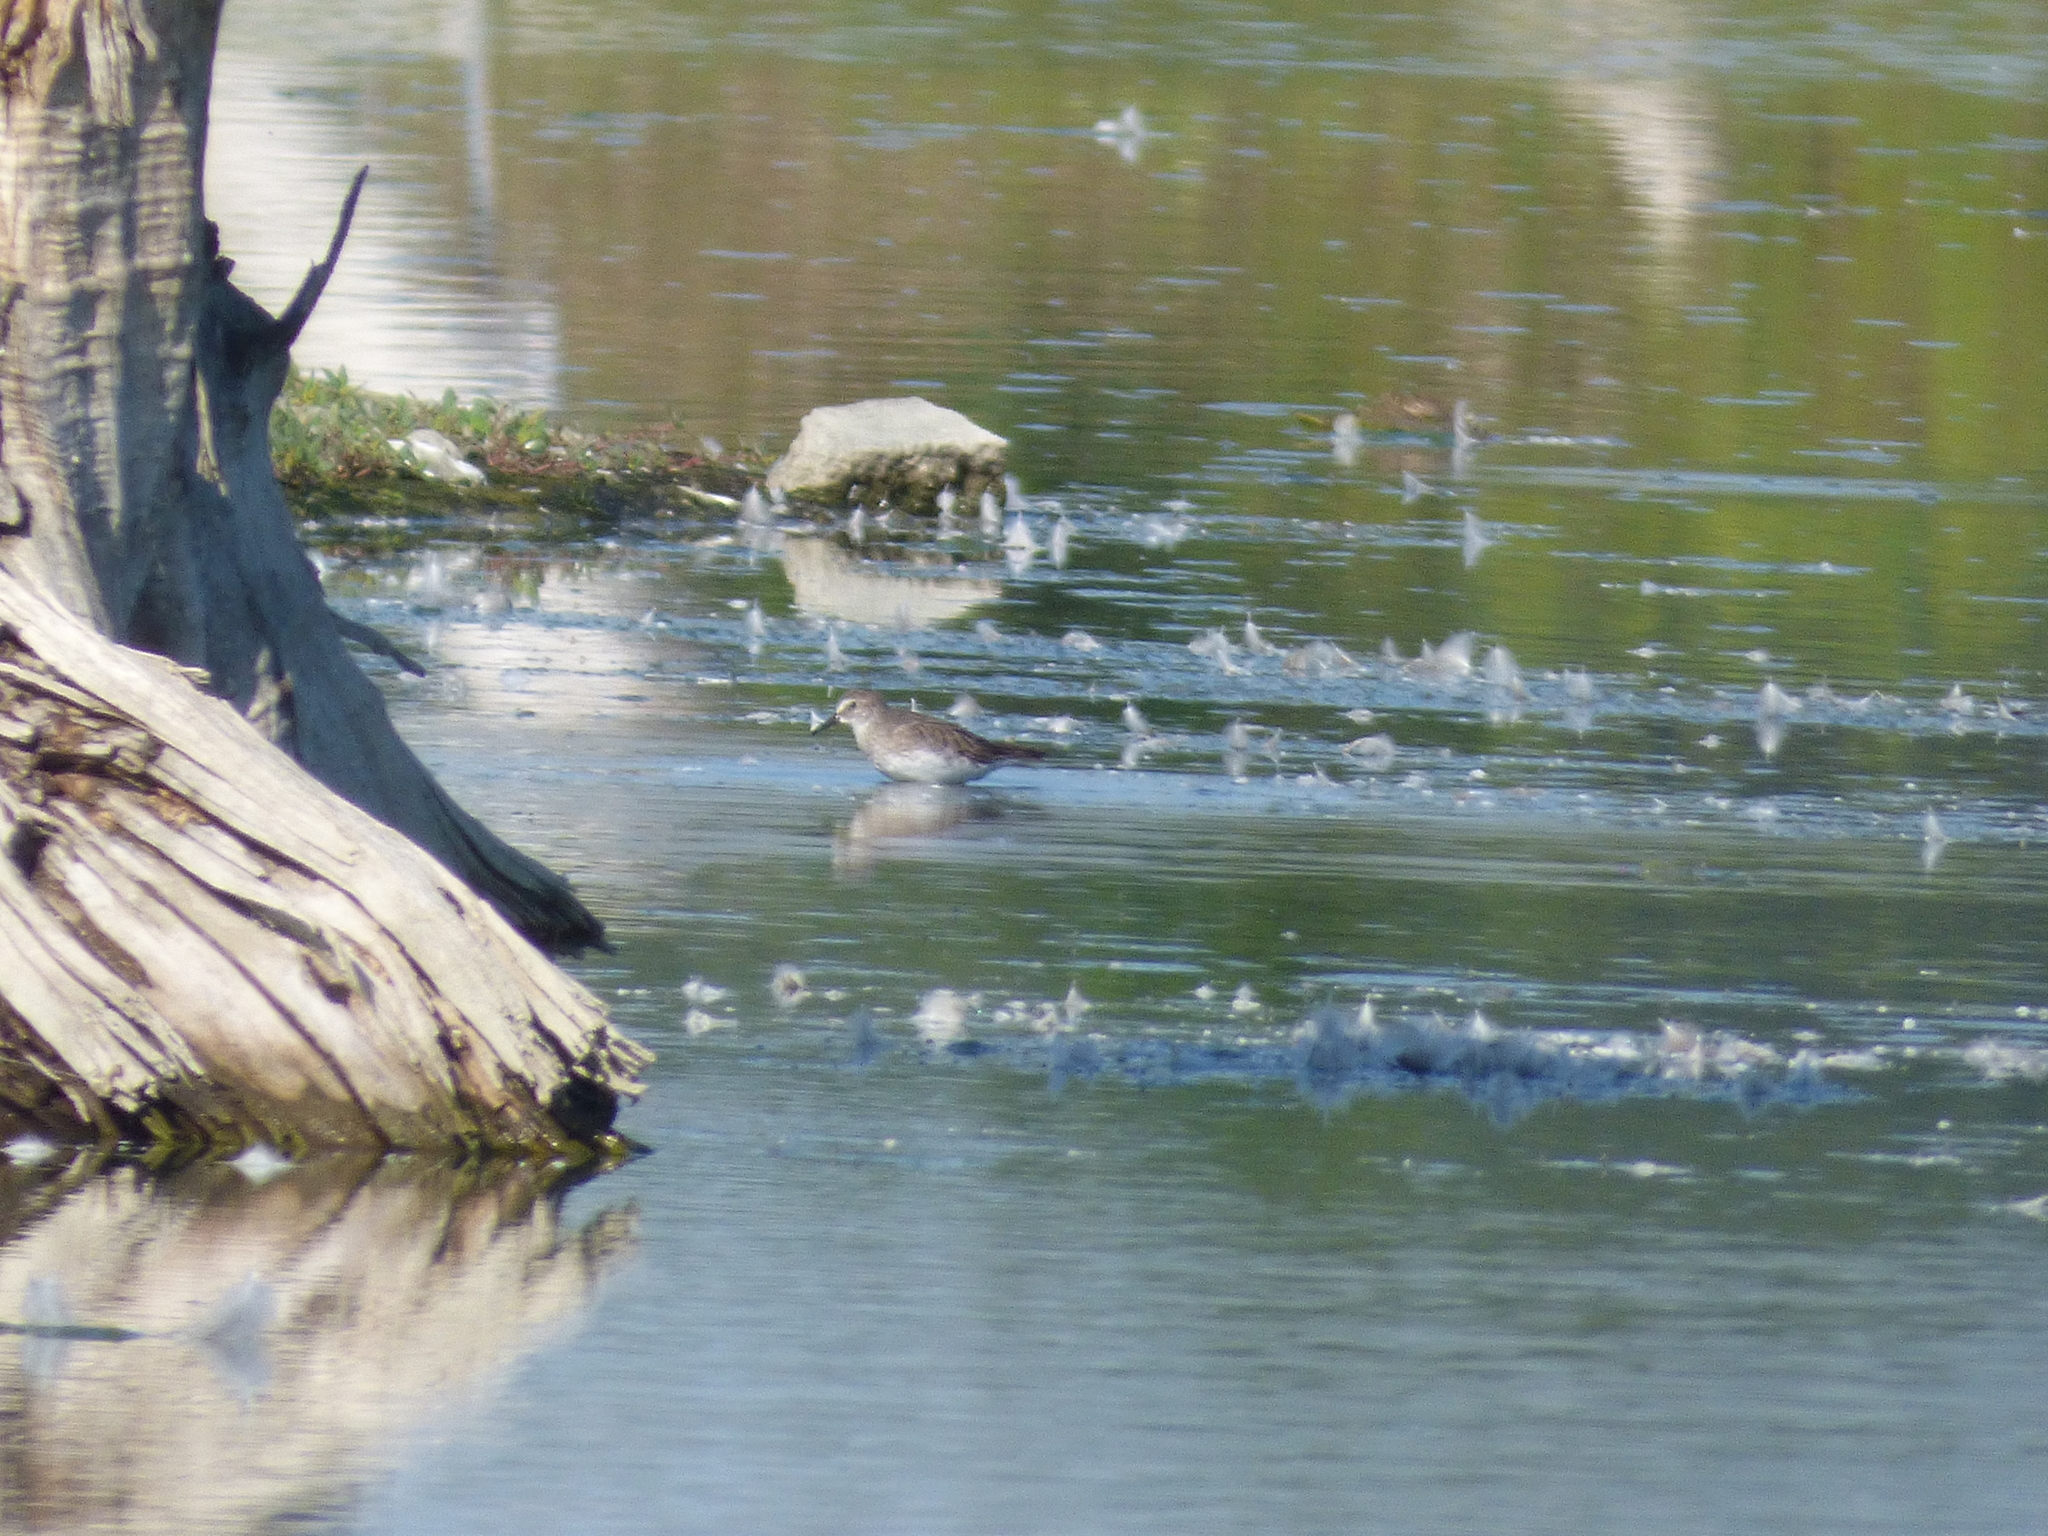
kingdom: Animalia
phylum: Chordata
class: Aves
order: Charadriiformes
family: Scolopacidae
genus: Calidris
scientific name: Calidris fuscicollis
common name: White-rumped sandpiper
